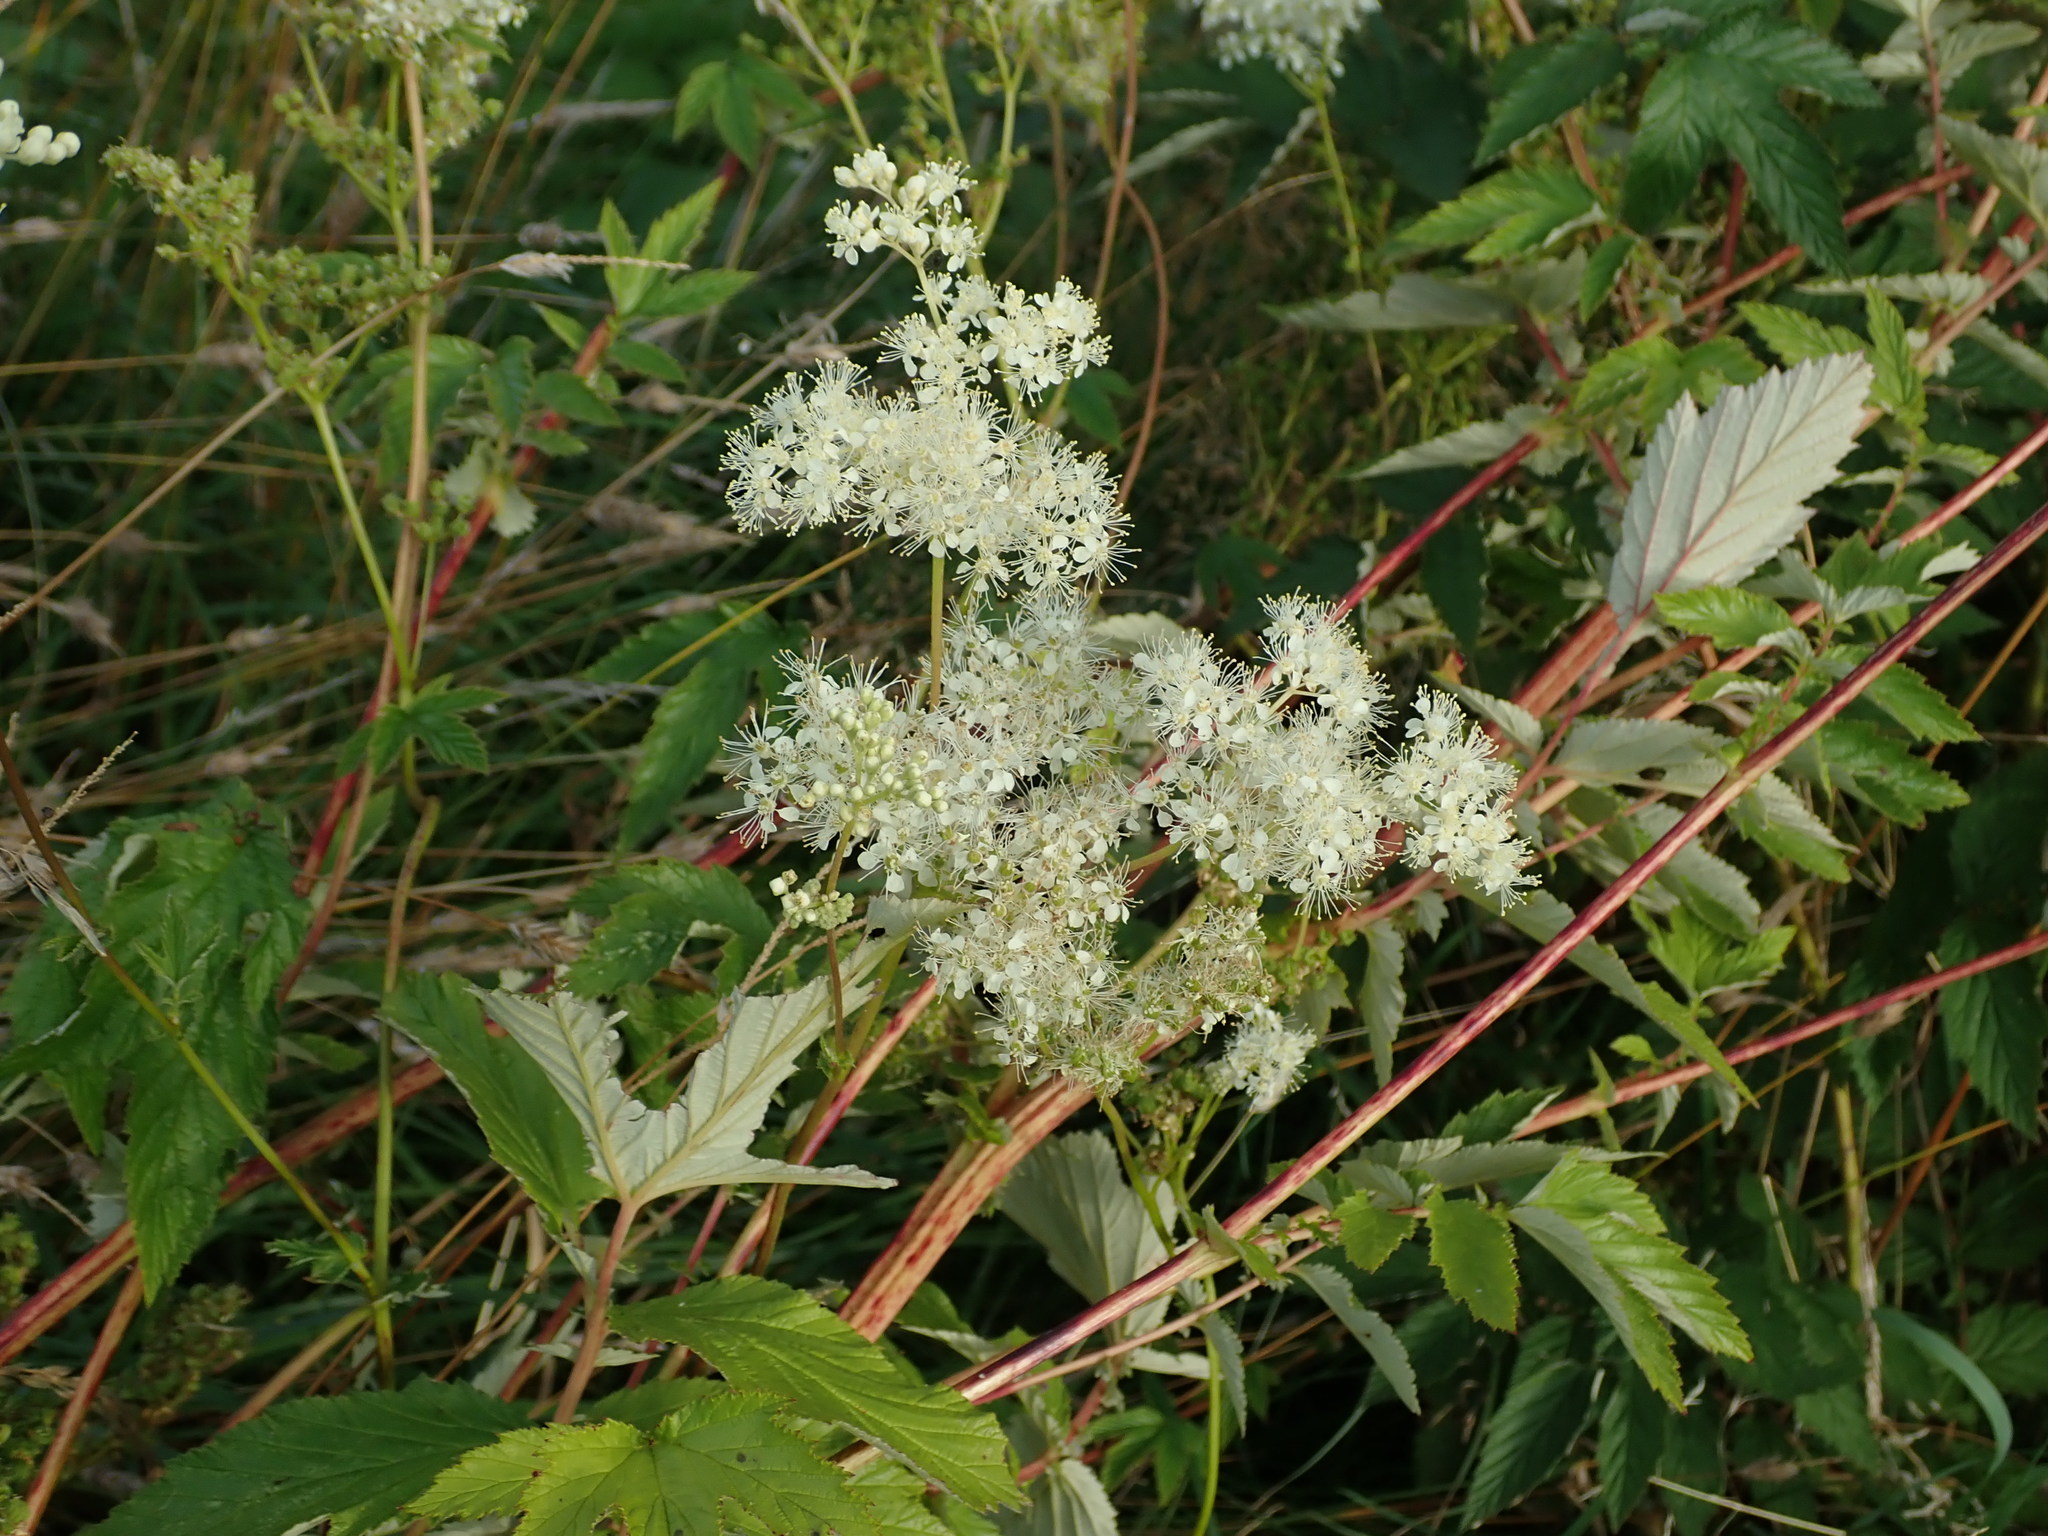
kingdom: Plantae
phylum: Tracheophyta
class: Magnoliopsida
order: Rosales
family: Rosaceae
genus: Filipendula
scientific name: Filipendula ulmaria
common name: Meadowsweet
